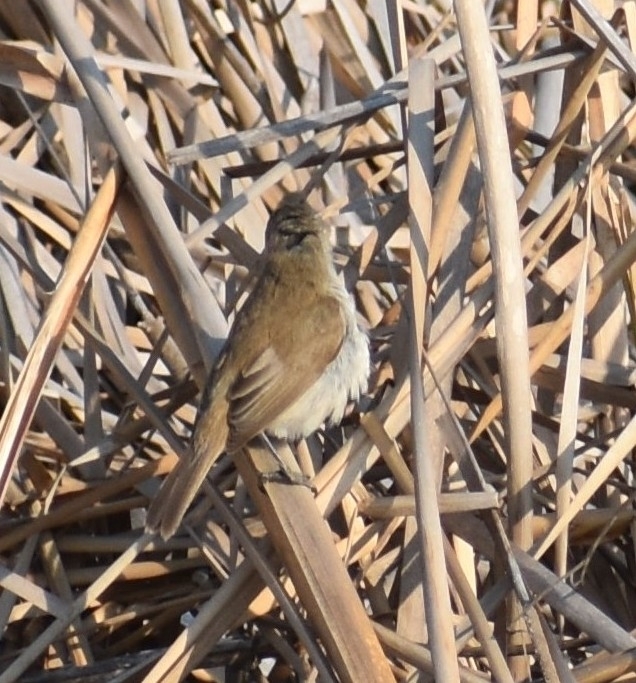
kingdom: Animalia
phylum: Chordata
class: Aves
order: Passeriformes
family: Acrocephalidae
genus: Acrocephalus
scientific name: Acrocephalus gracilirostris
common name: Lesser swamp warbler
